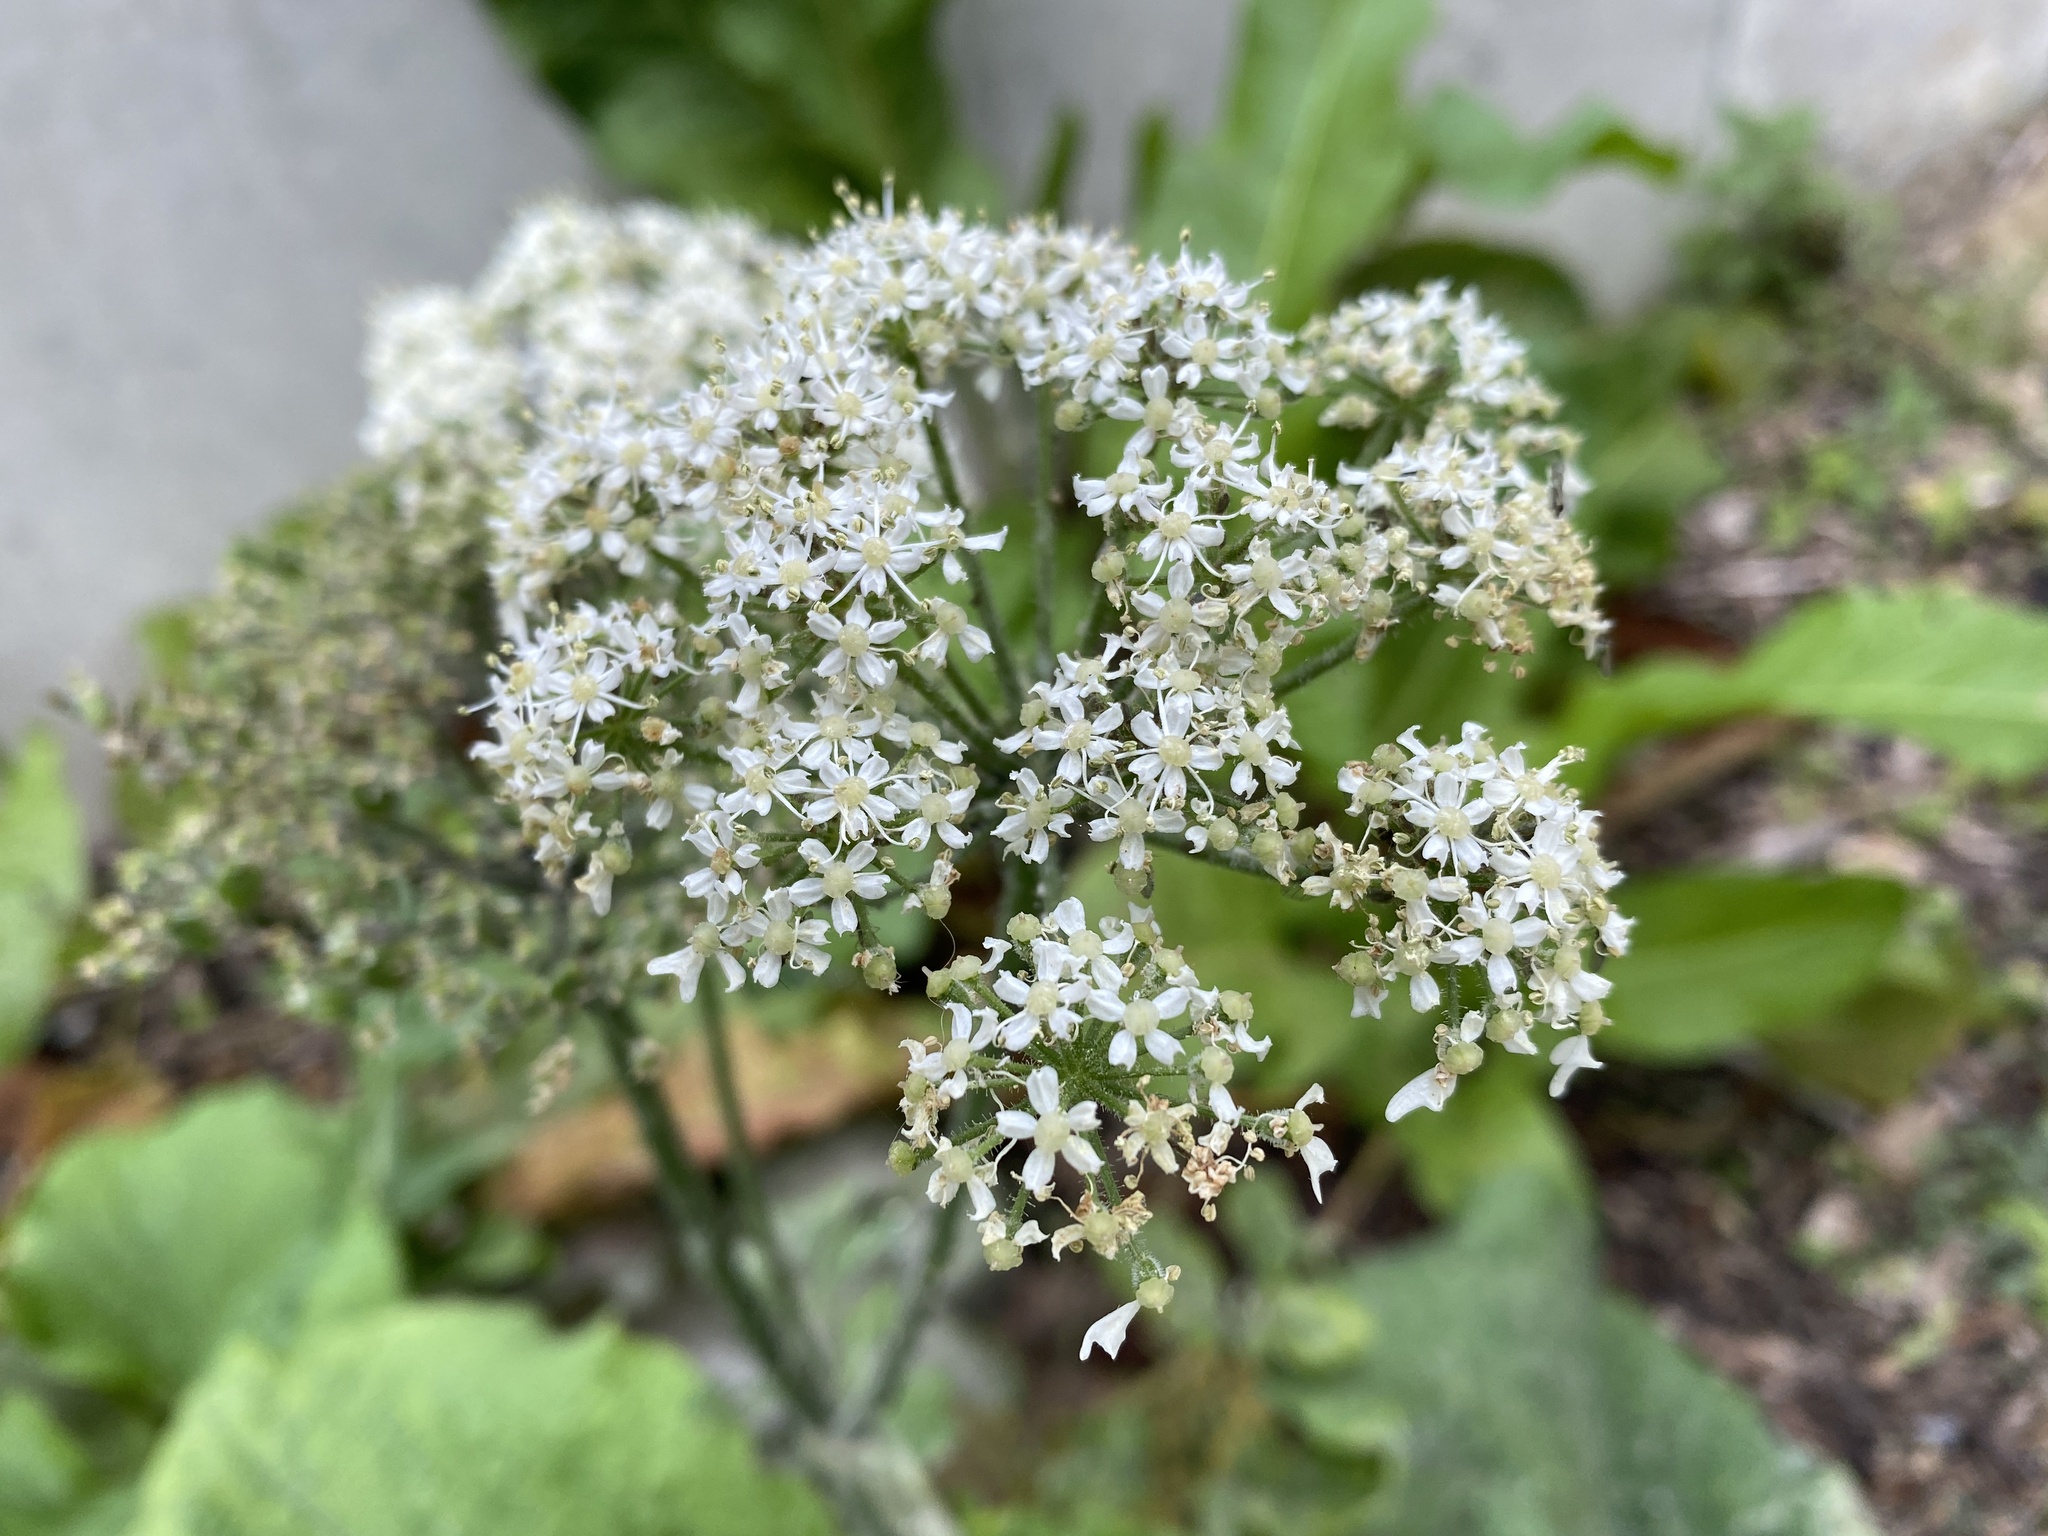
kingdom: Plantae
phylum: Tracheophyta
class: Magnoliopsida
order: Apiales
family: Apiaceae
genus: Heracleum
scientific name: Heracleum sphondylium
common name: Hogweed
